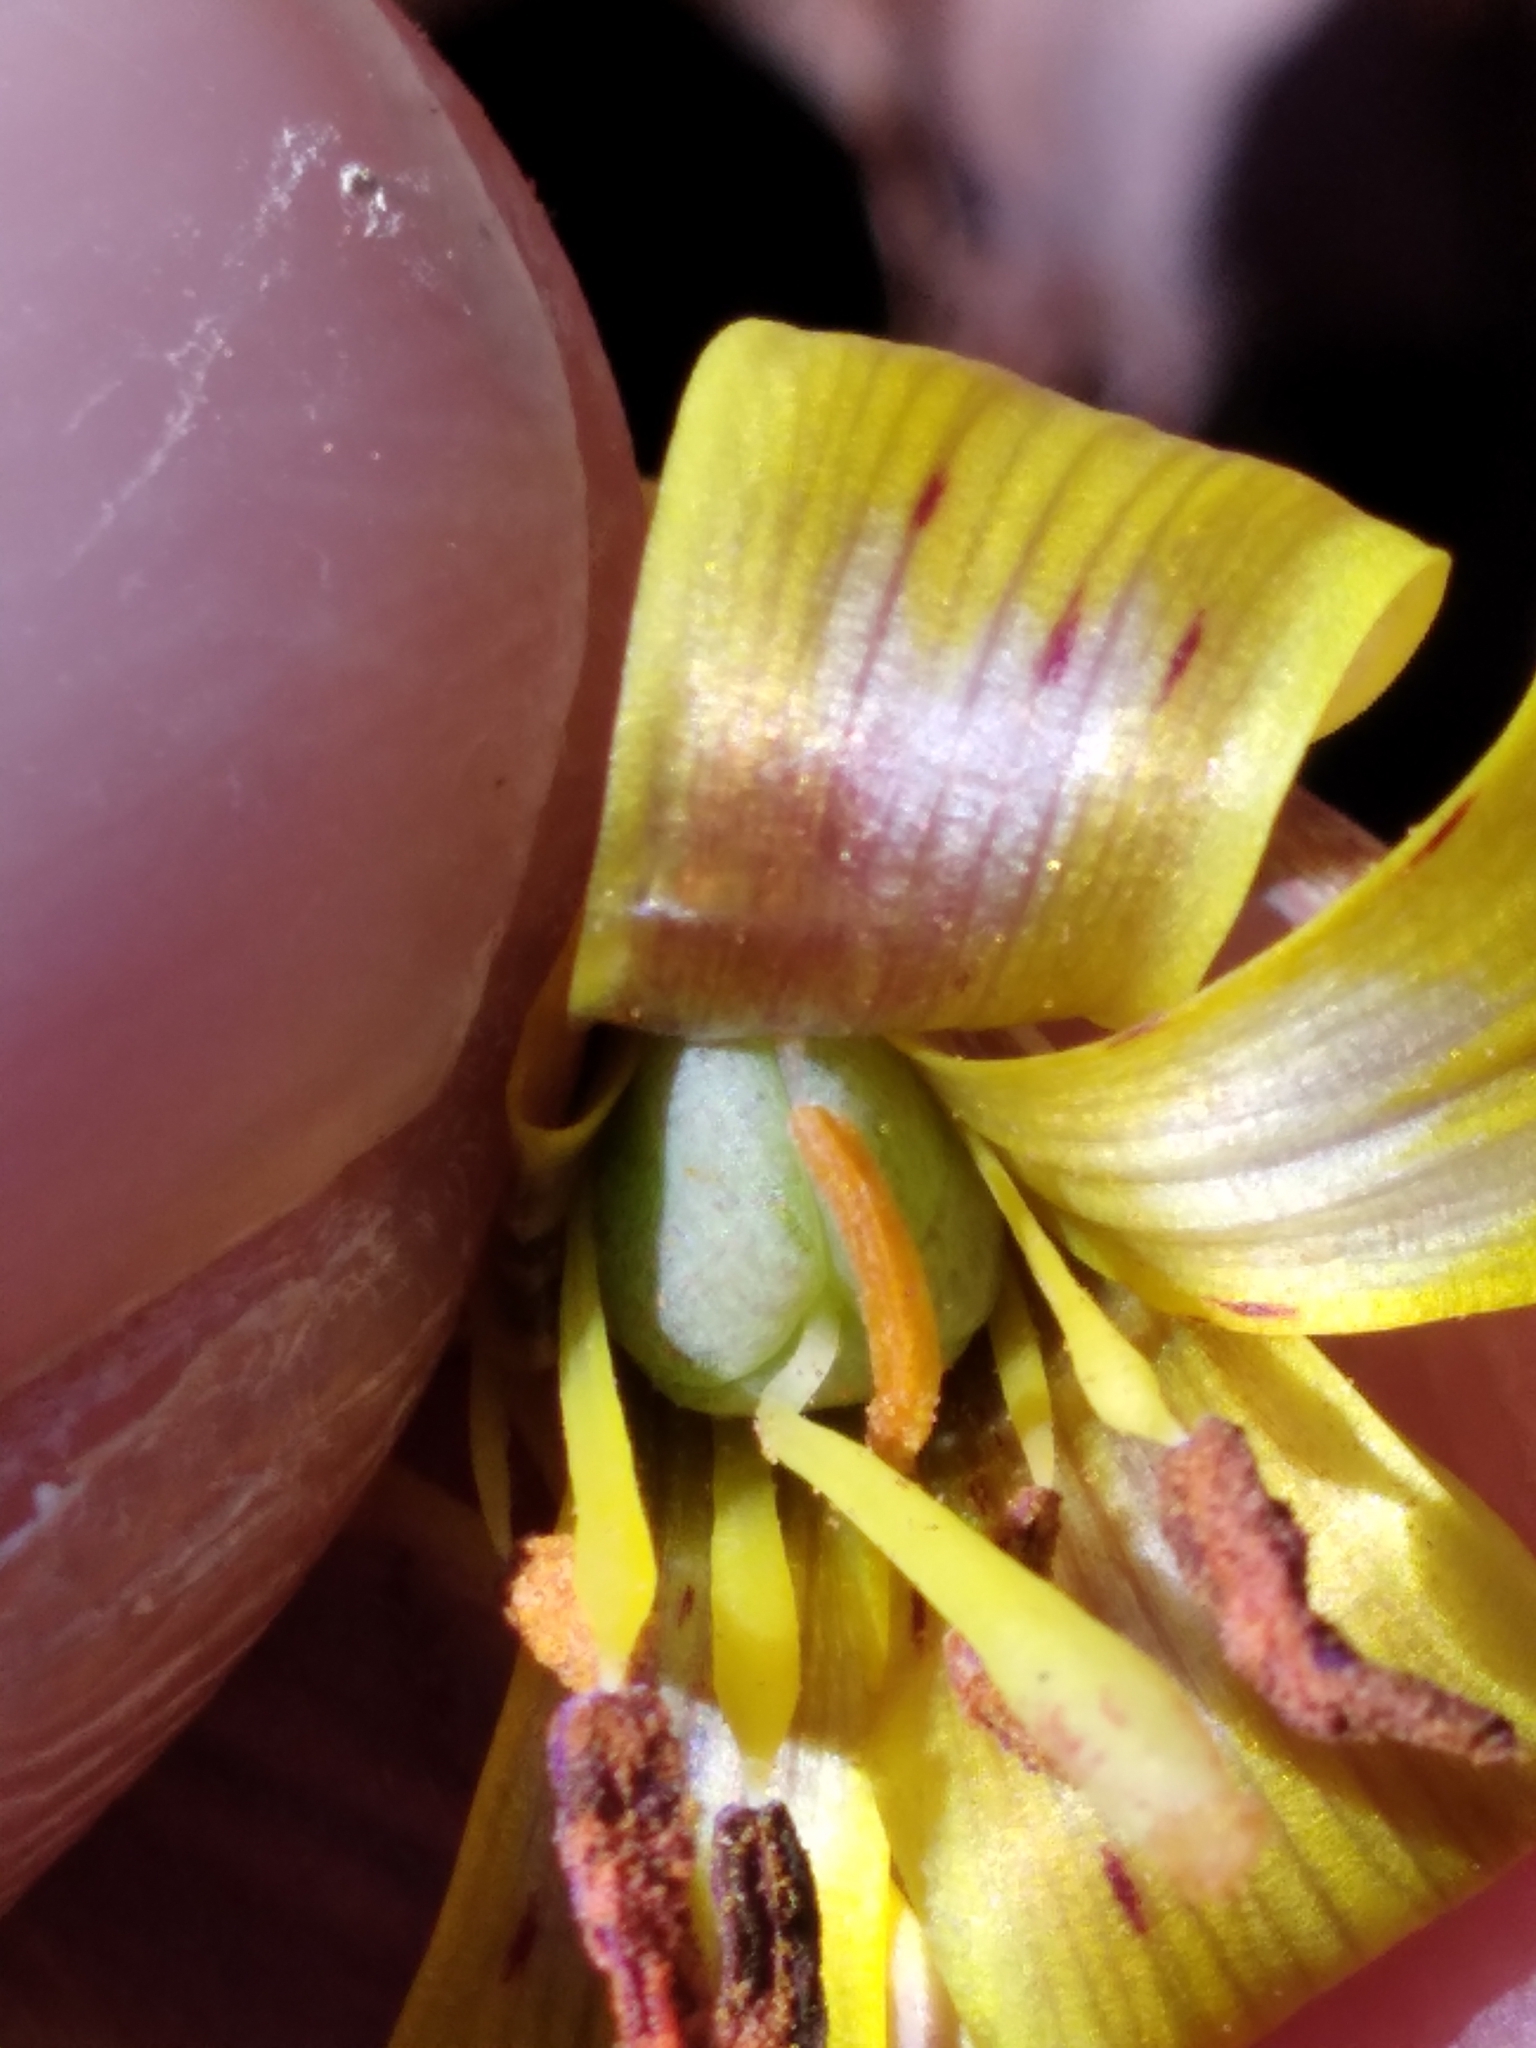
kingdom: Plantae
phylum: Tracheophyta
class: Liliopsida
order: Liliales
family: Liliaceae
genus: Erythronium
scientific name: Erythronium umbilicatum
